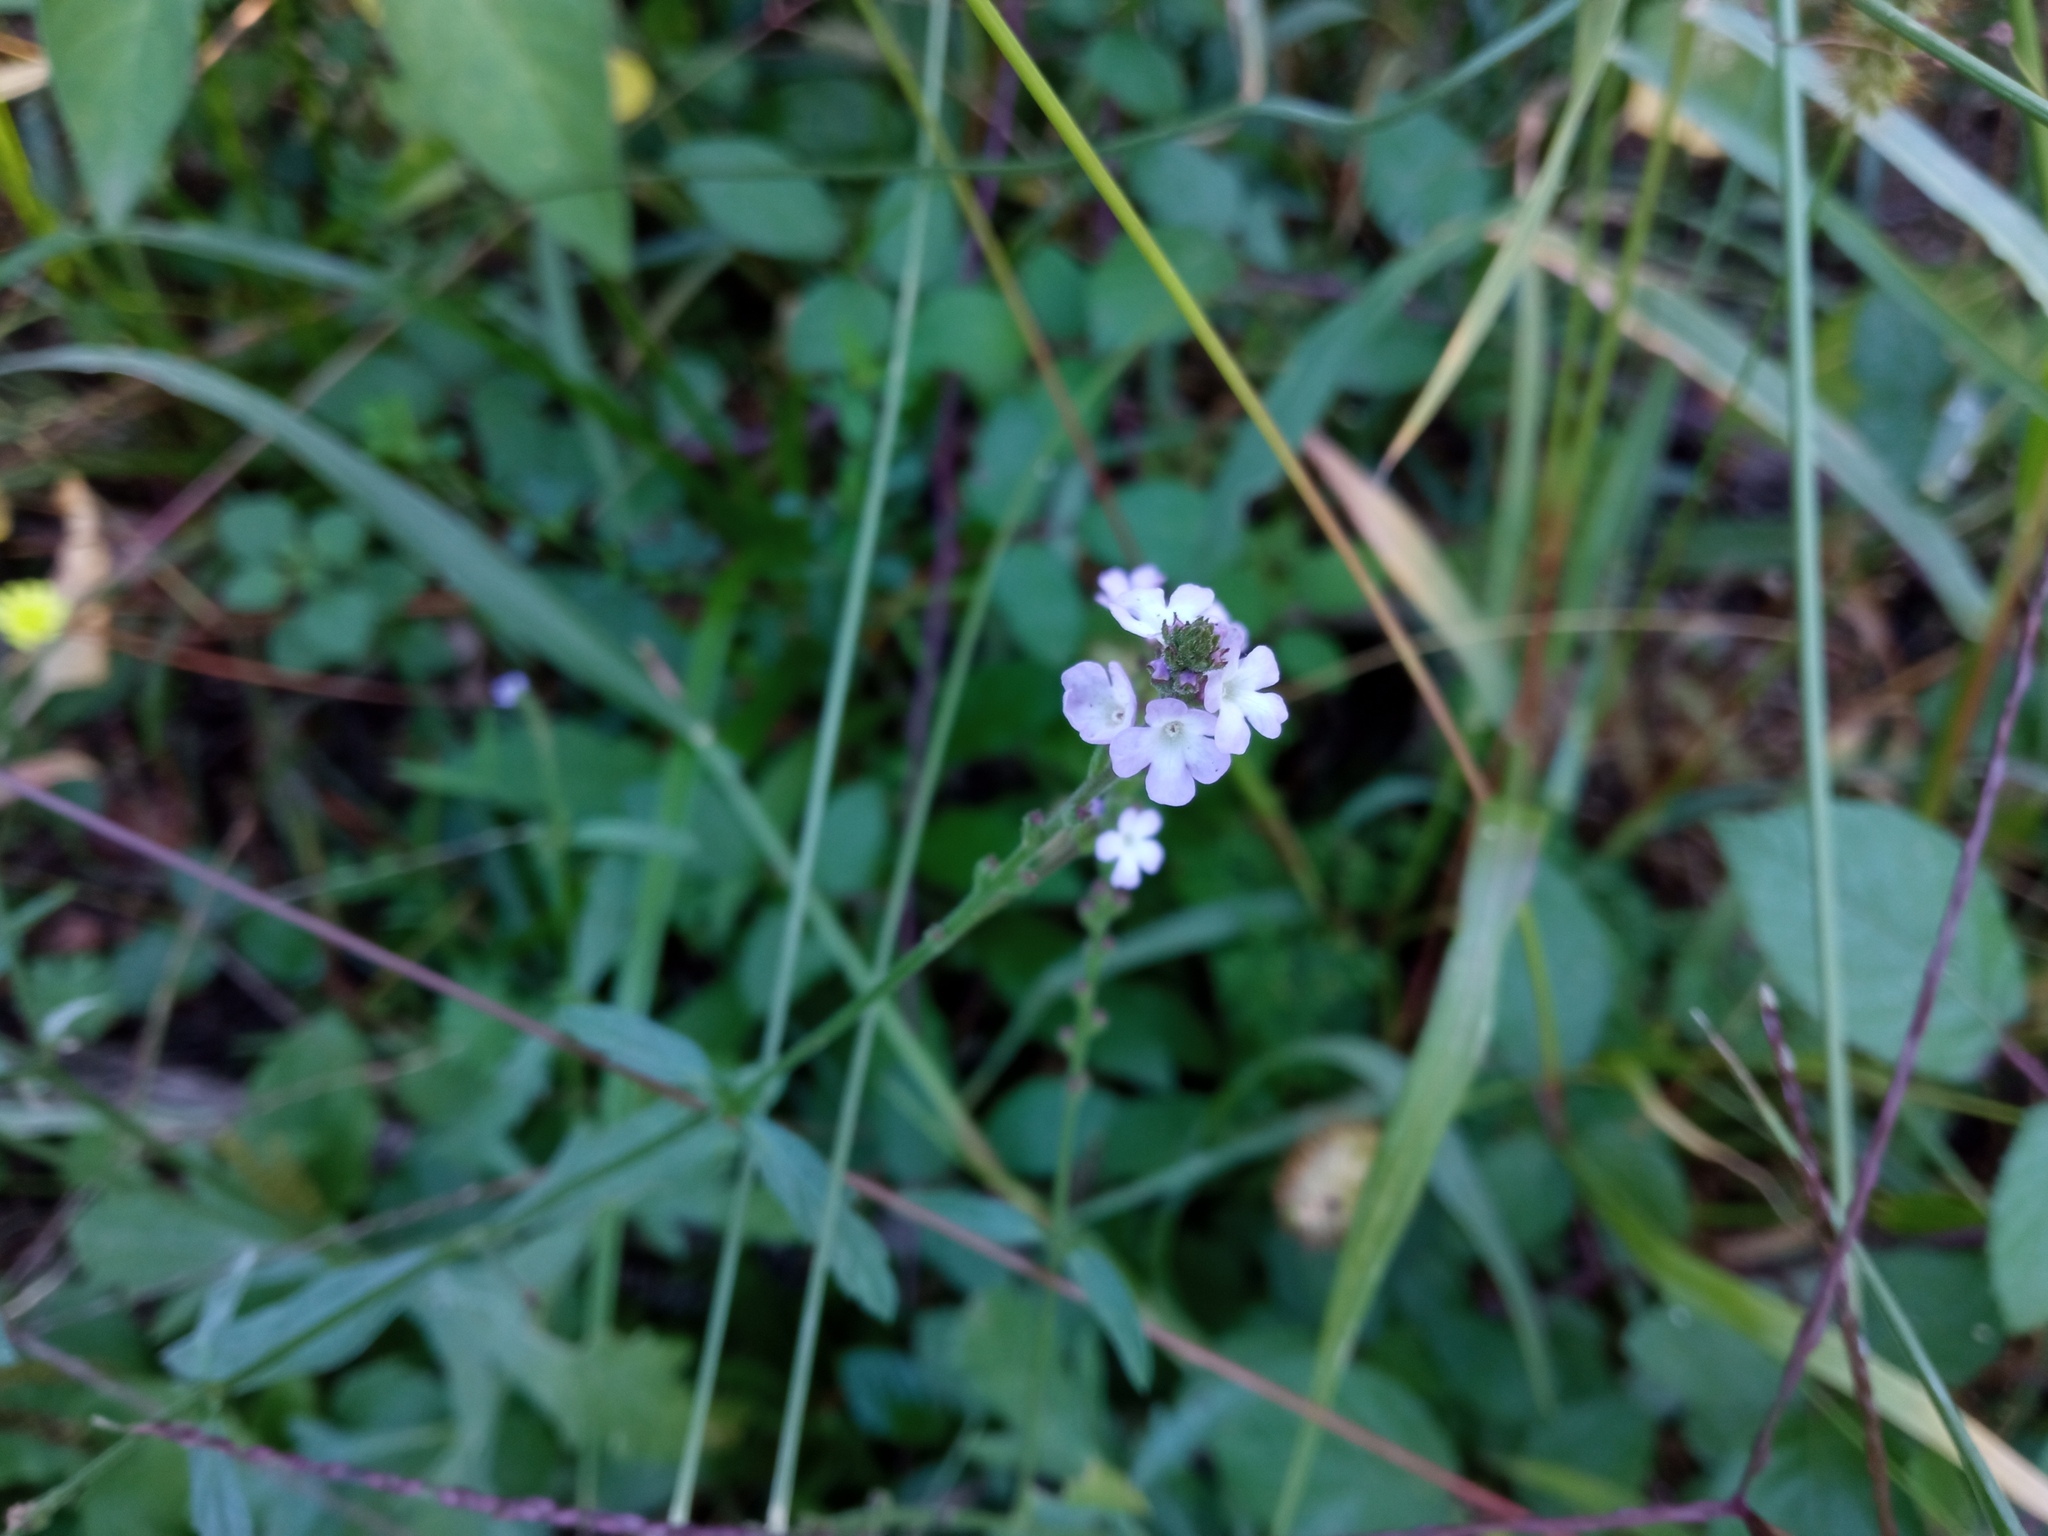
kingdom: Plantae
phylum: Tracheophyta
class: Magnoliopsida
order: Lamiales
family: Verbenaceae
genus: Verbena
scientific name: Verbena officinalis
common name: Vervain
